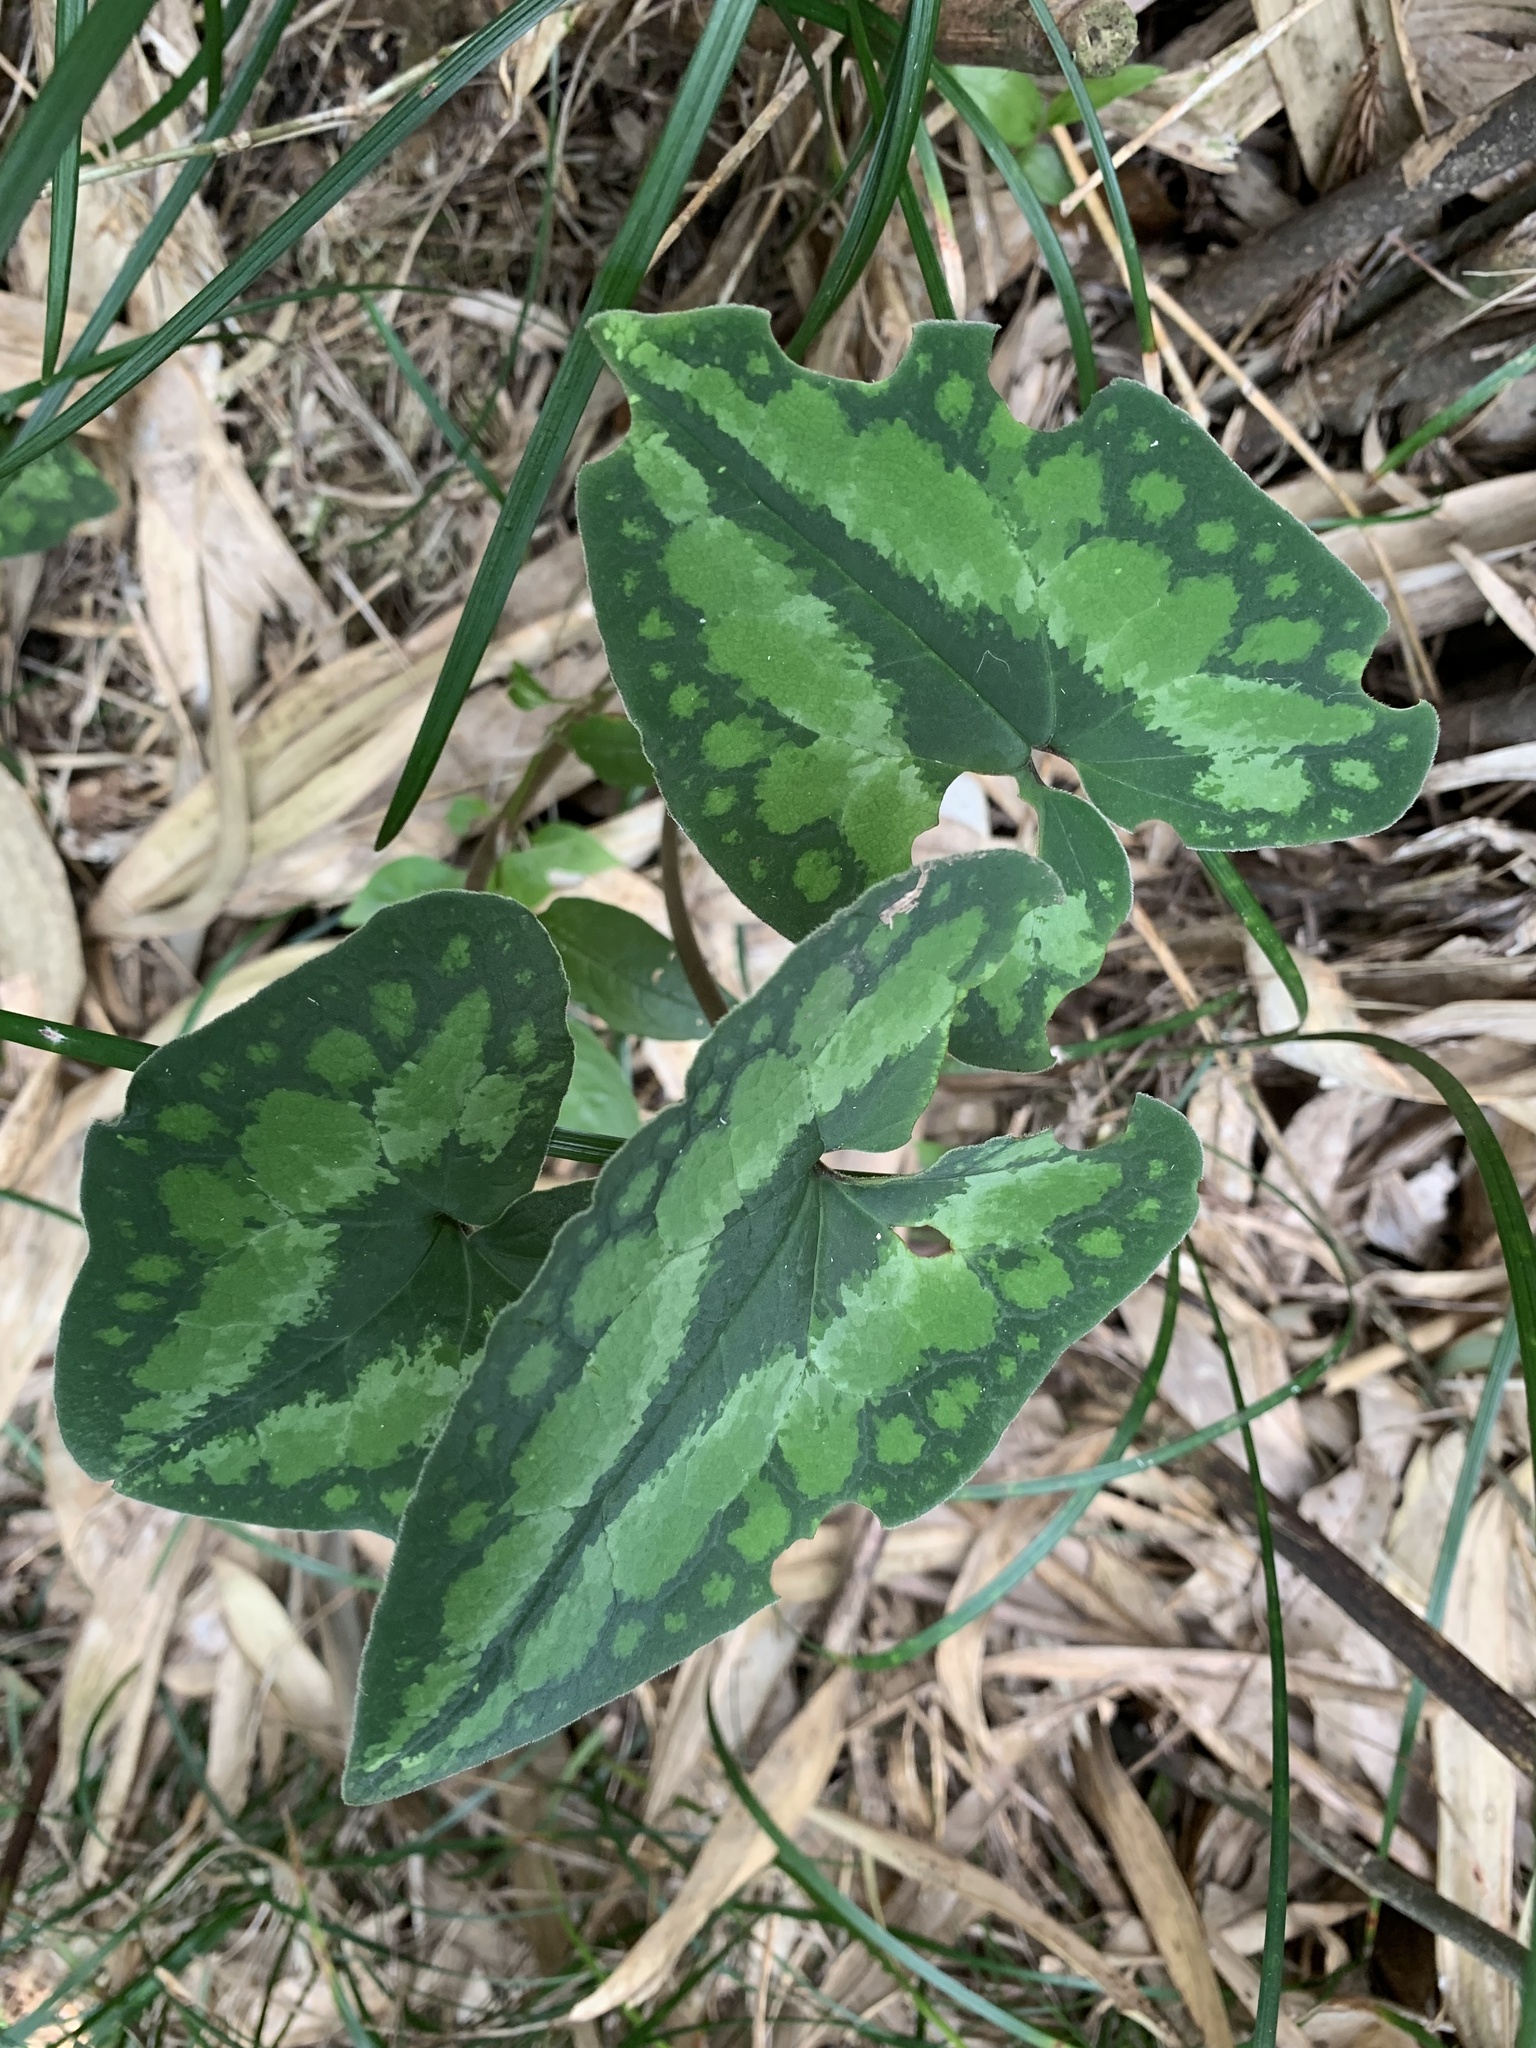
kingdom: Plantae
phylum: Tracheophyta
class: Magnoliopsida
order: Piperales
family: Aristolochiaceae
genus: Asarum
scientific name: Asarum macranthum
